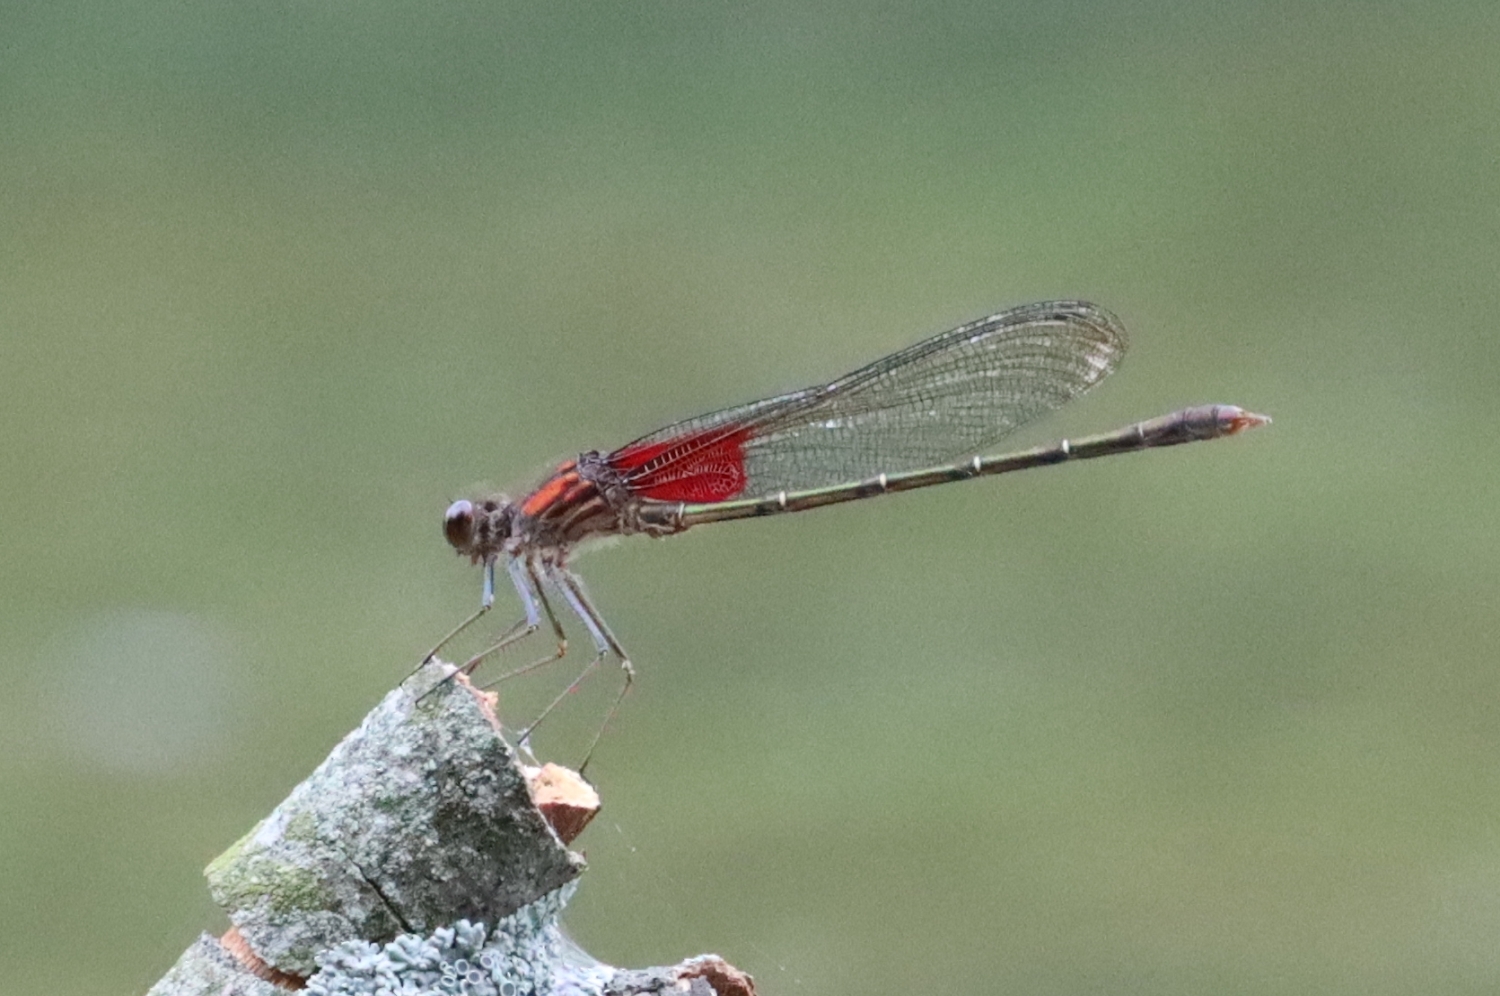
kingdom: Animalia
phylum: Arthropoda
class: Insecta
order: Odonata
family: Calopterygidae
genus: Hetaerina
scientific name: Hetaerina americana
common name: American rubyspot
